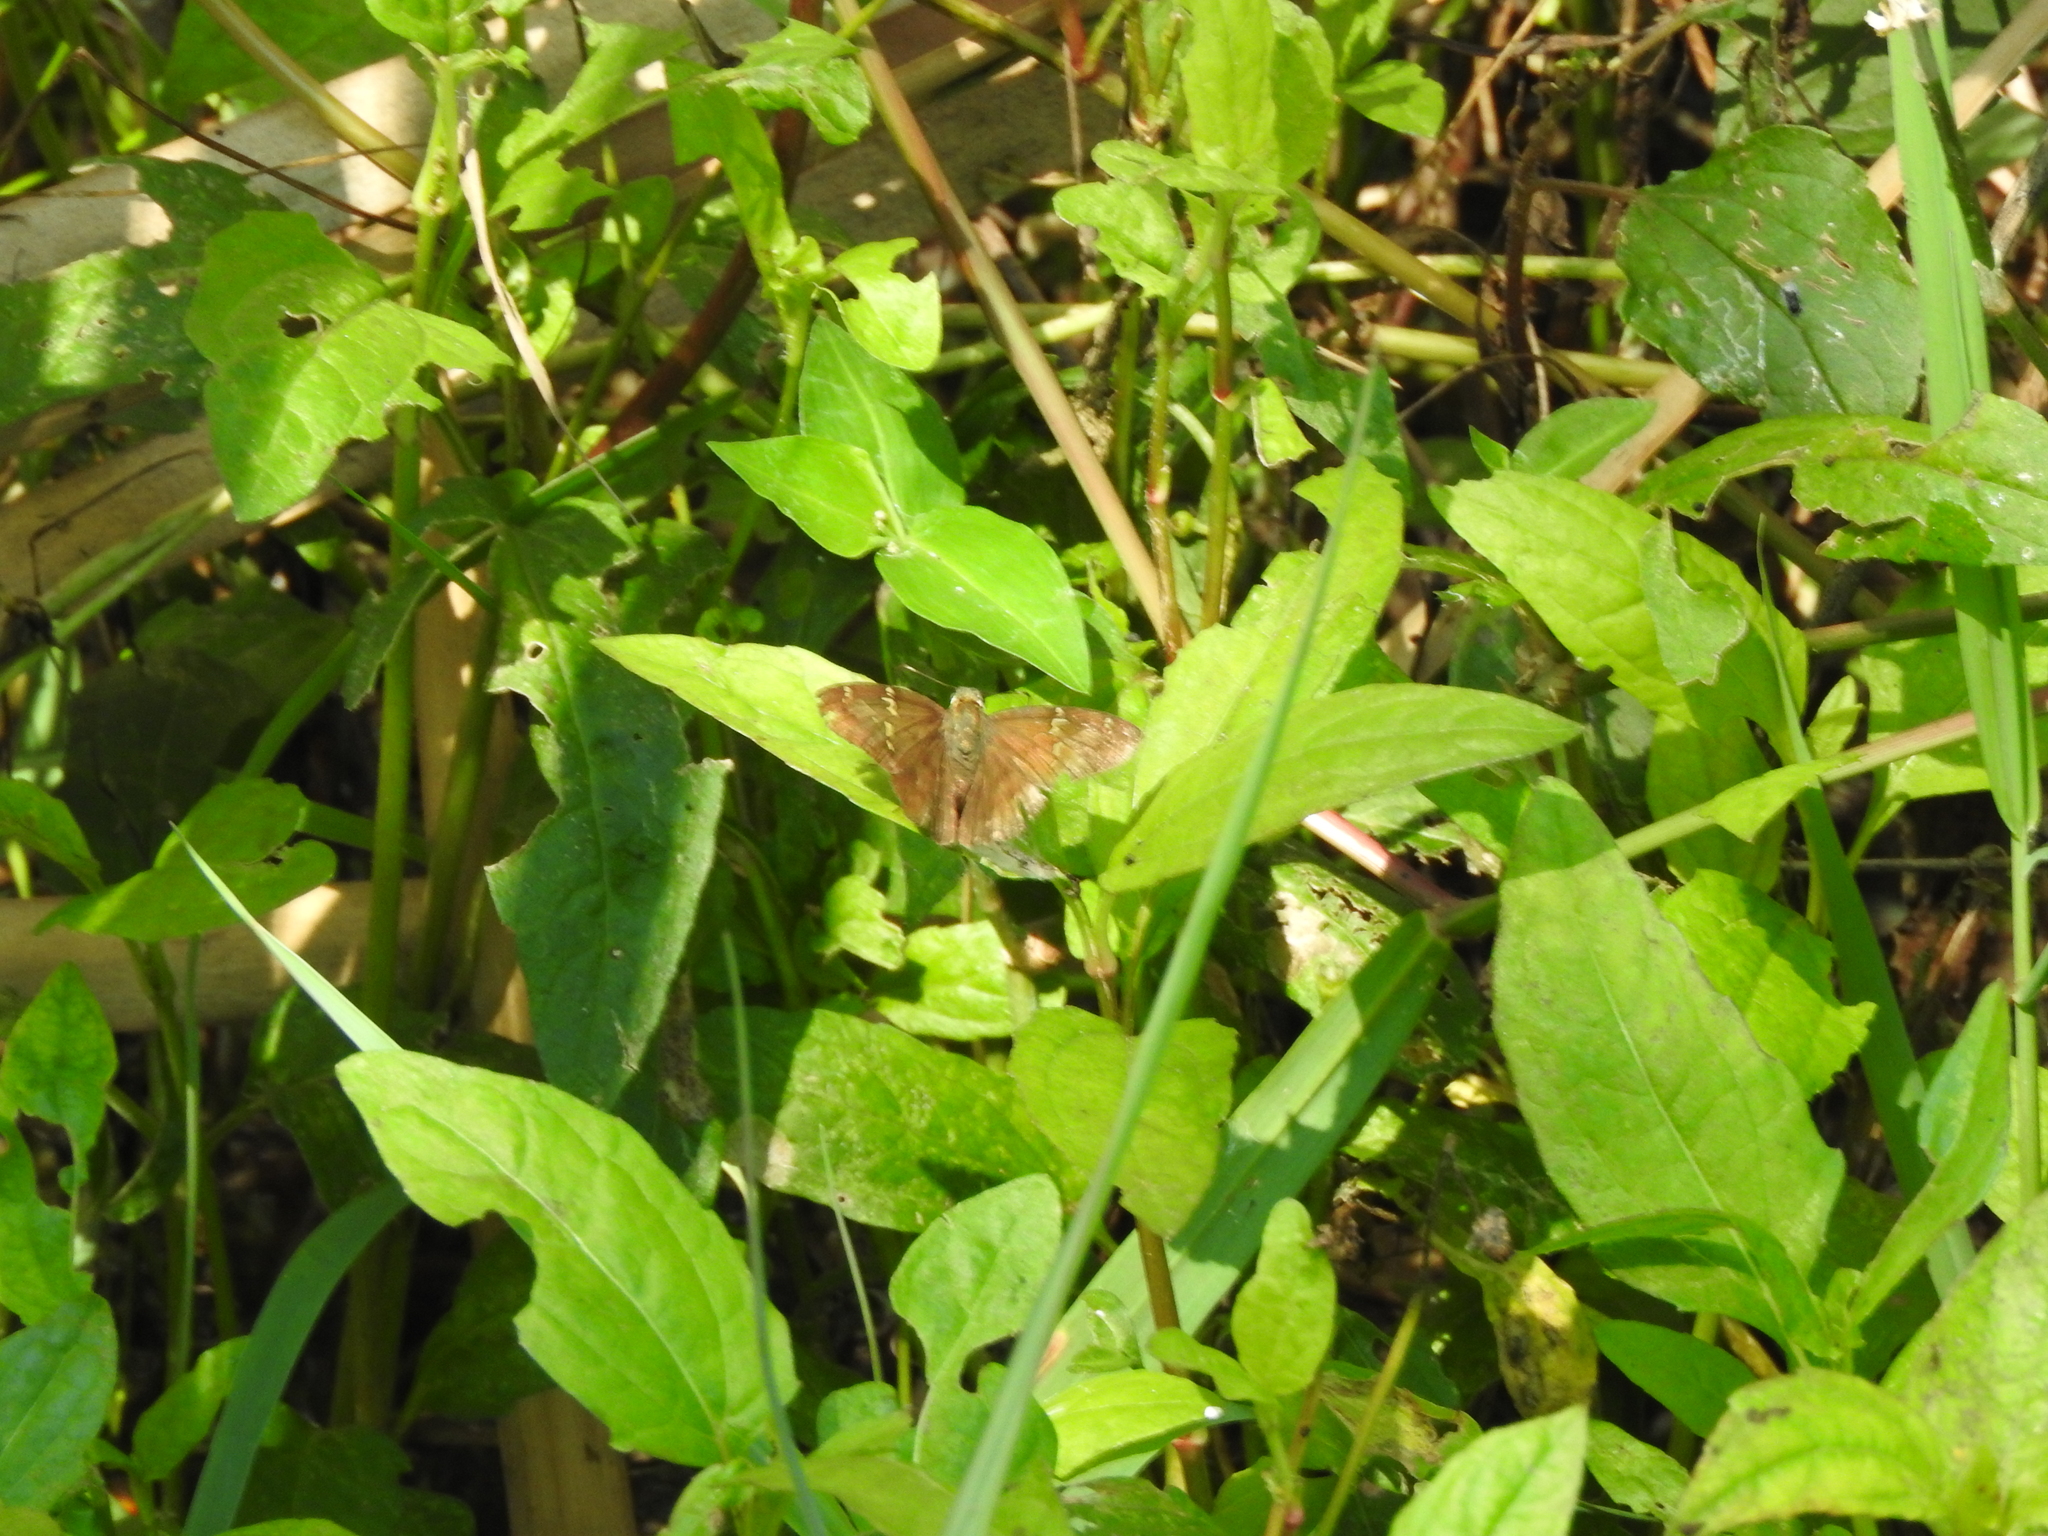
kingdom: Animalia
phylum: Arthropoda
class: Insecta
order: Lepidoptera
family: Hesperiidae
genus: Autochton
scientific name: Autochton potrillo
